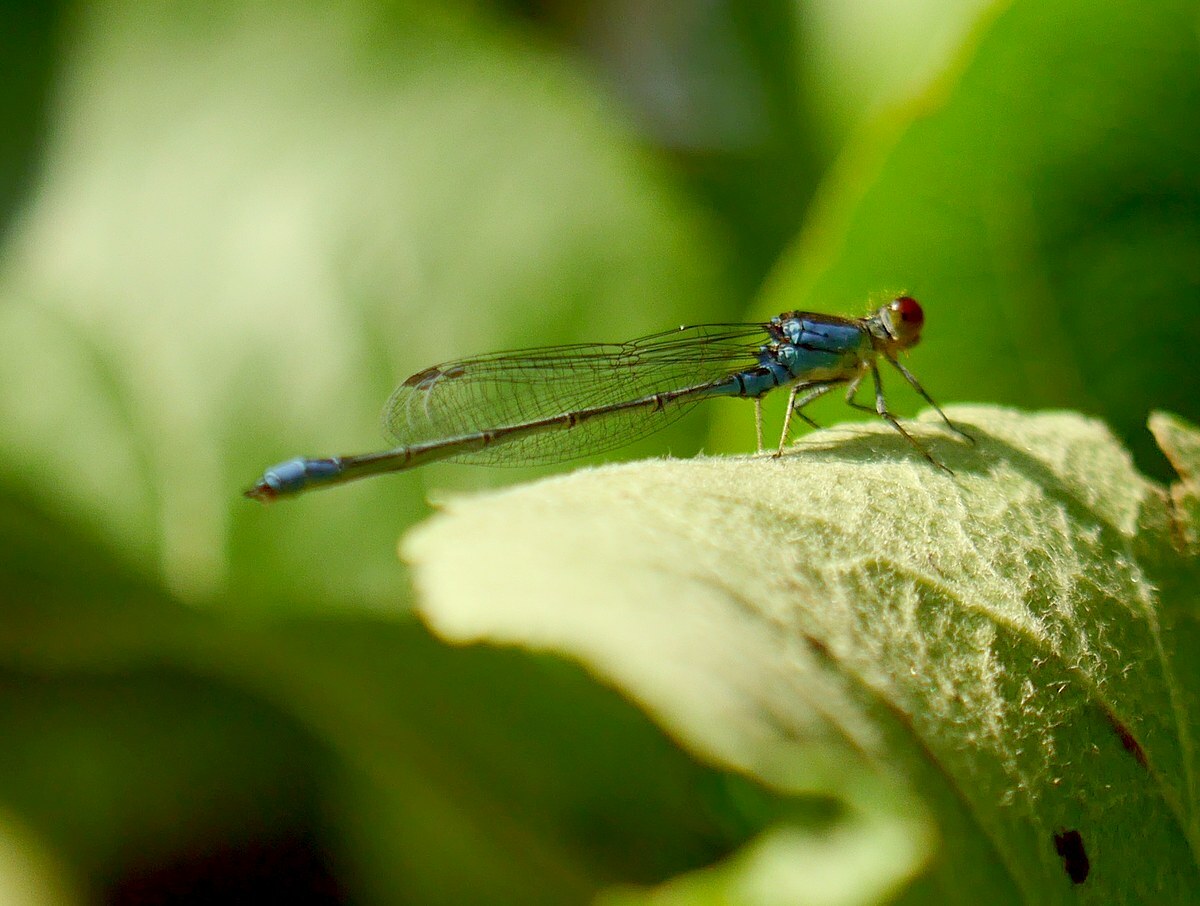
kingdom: Animalia
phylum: Arthropoda
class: Insecta
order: Odonata
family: Coenagrionidae
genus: Erythromma
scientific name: Erythromma viridulum
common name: Small red-eyed damselfly
